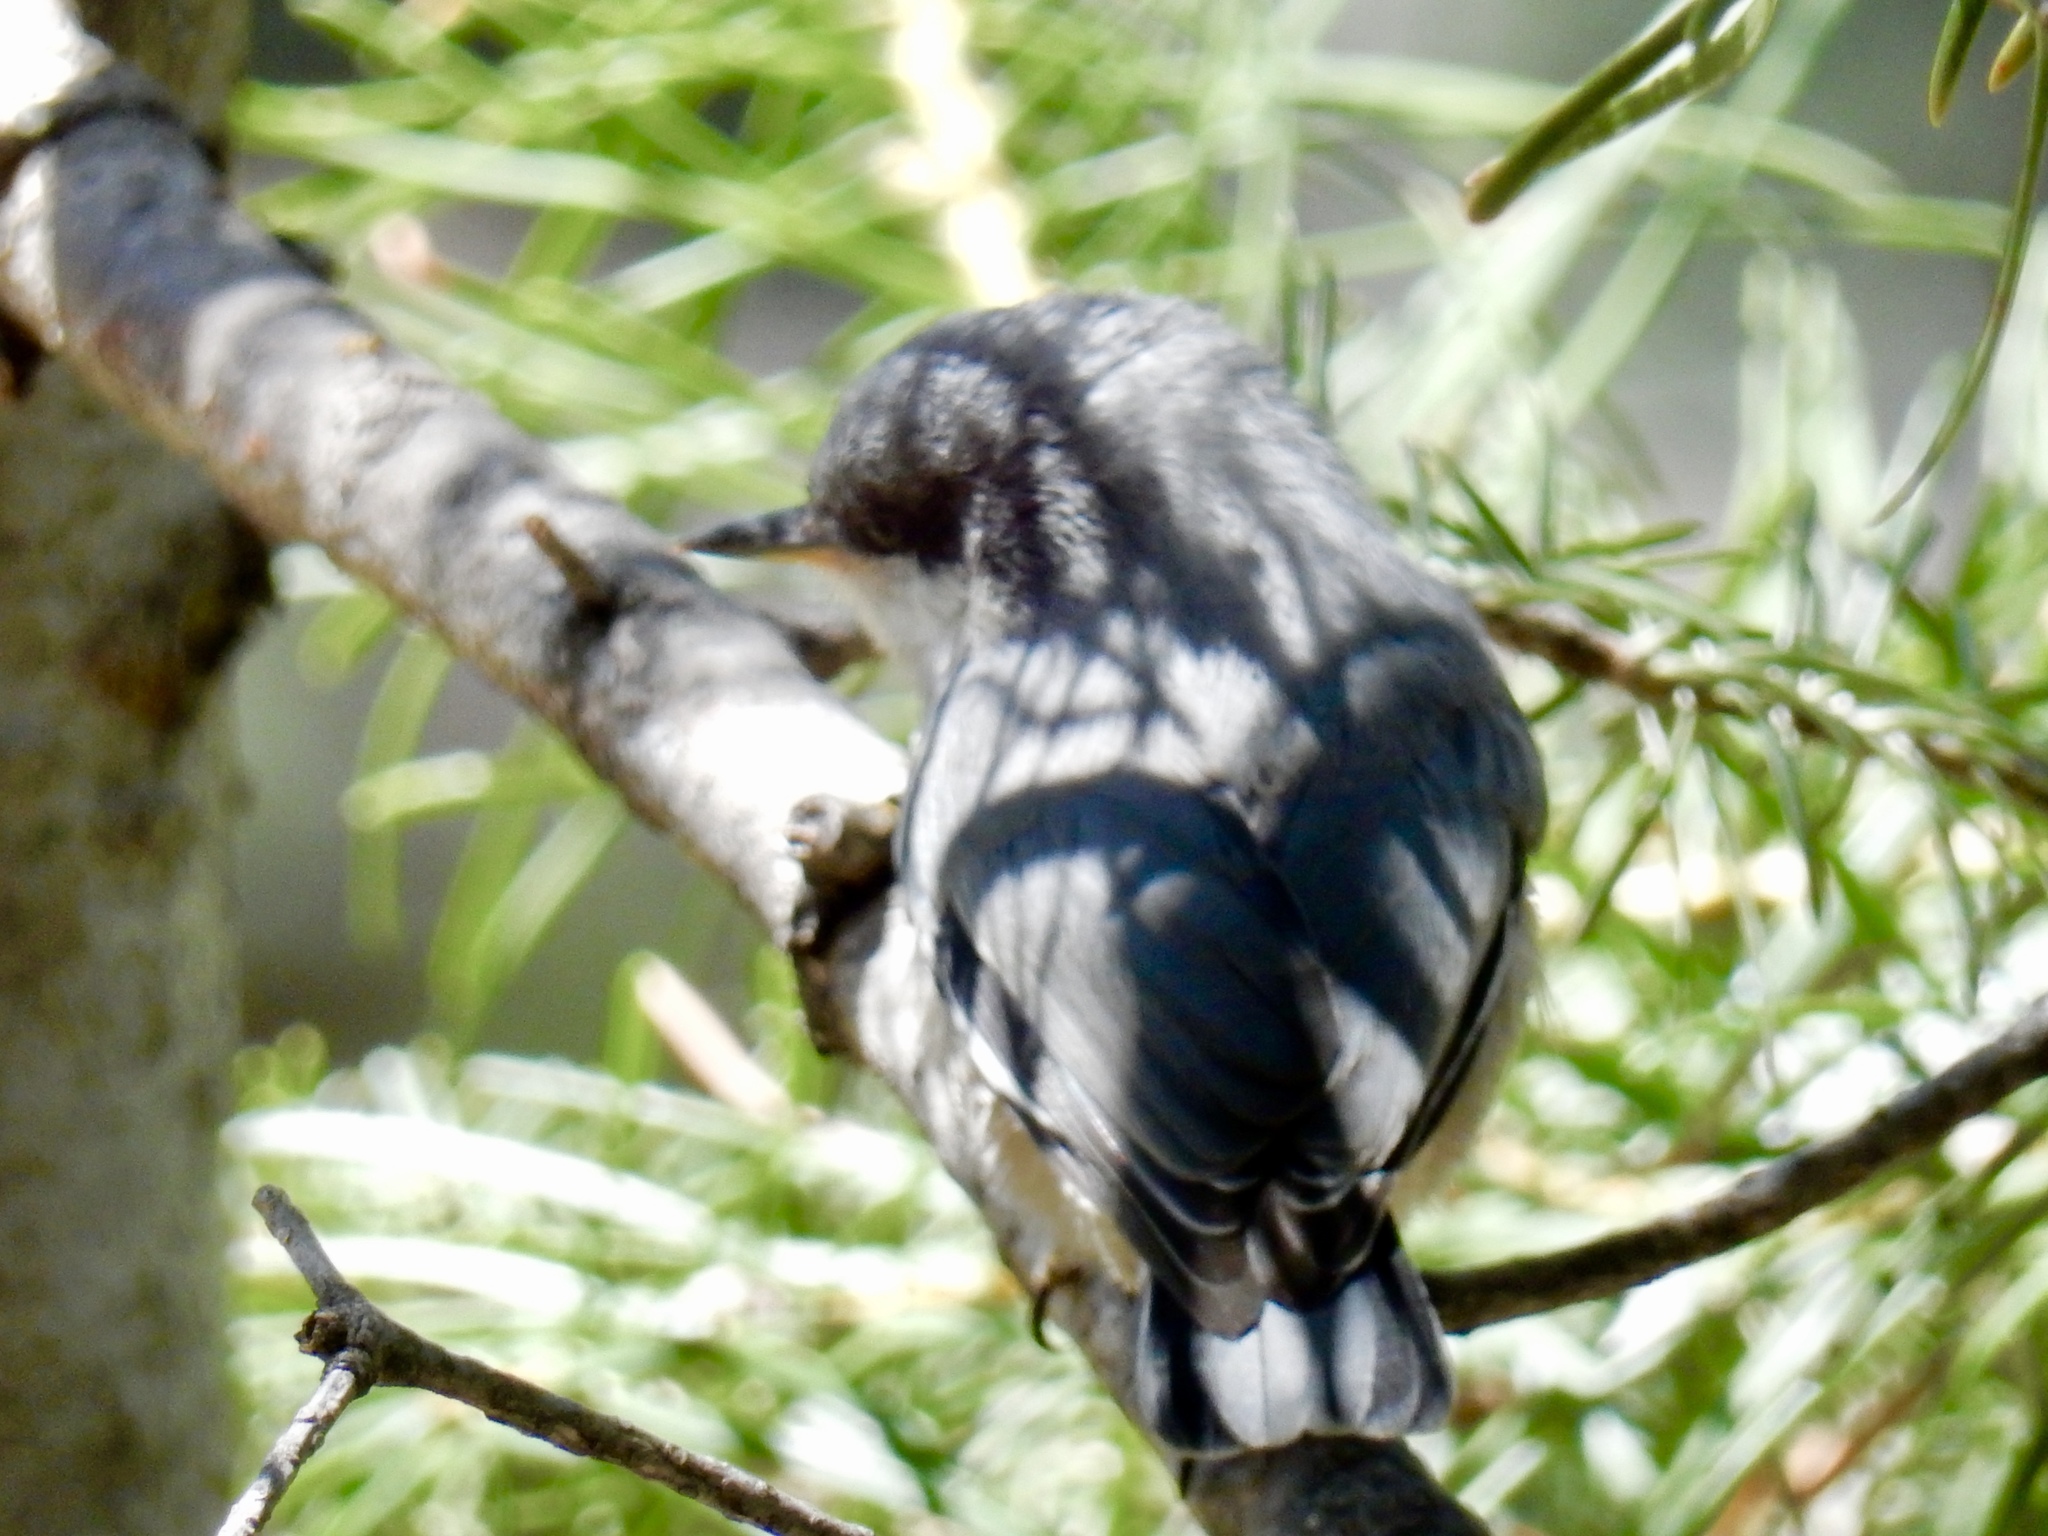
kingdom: Animalia
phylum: Chordata
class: Aves
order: Passeriformes
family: Sittidae
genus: Sitta
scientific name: Sitta pygmaea
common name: Pygmy nuthatch
